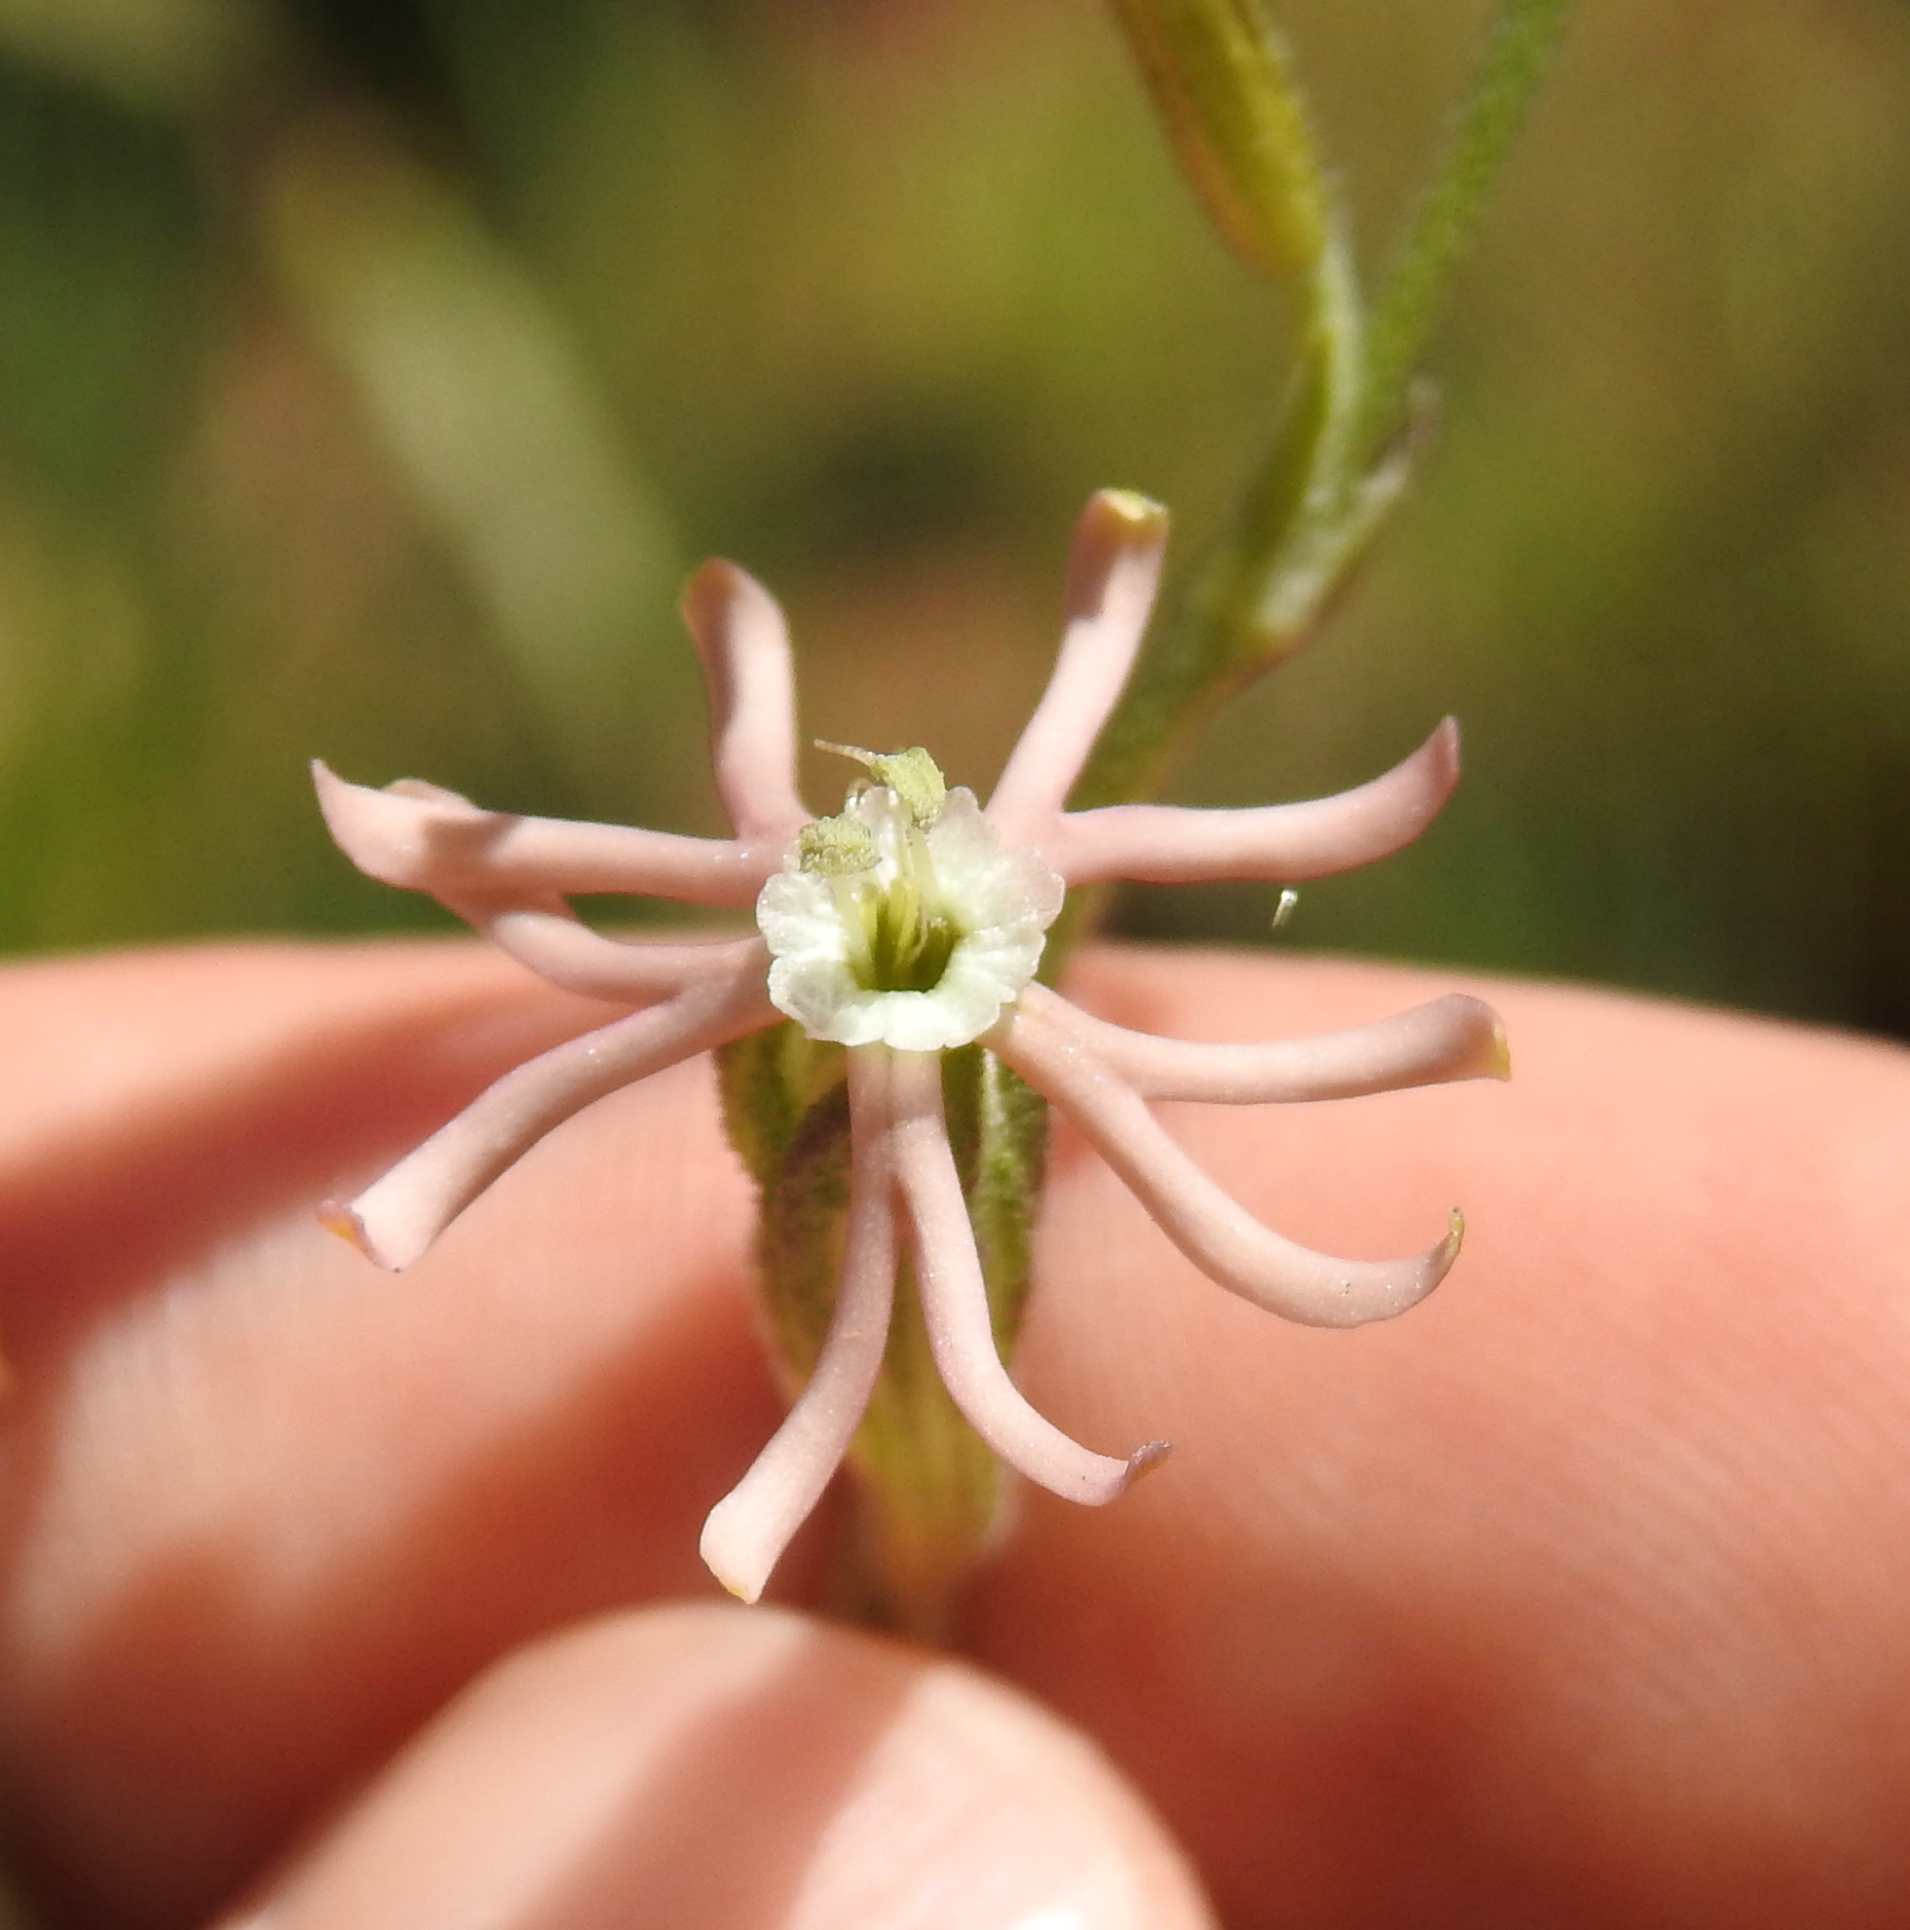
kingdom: Plantae
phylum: Tracheophyta
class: Magnoliopsida
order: Caryophyllales
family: Caryophyllaceae
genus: Silene
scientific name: Silene burchellii
